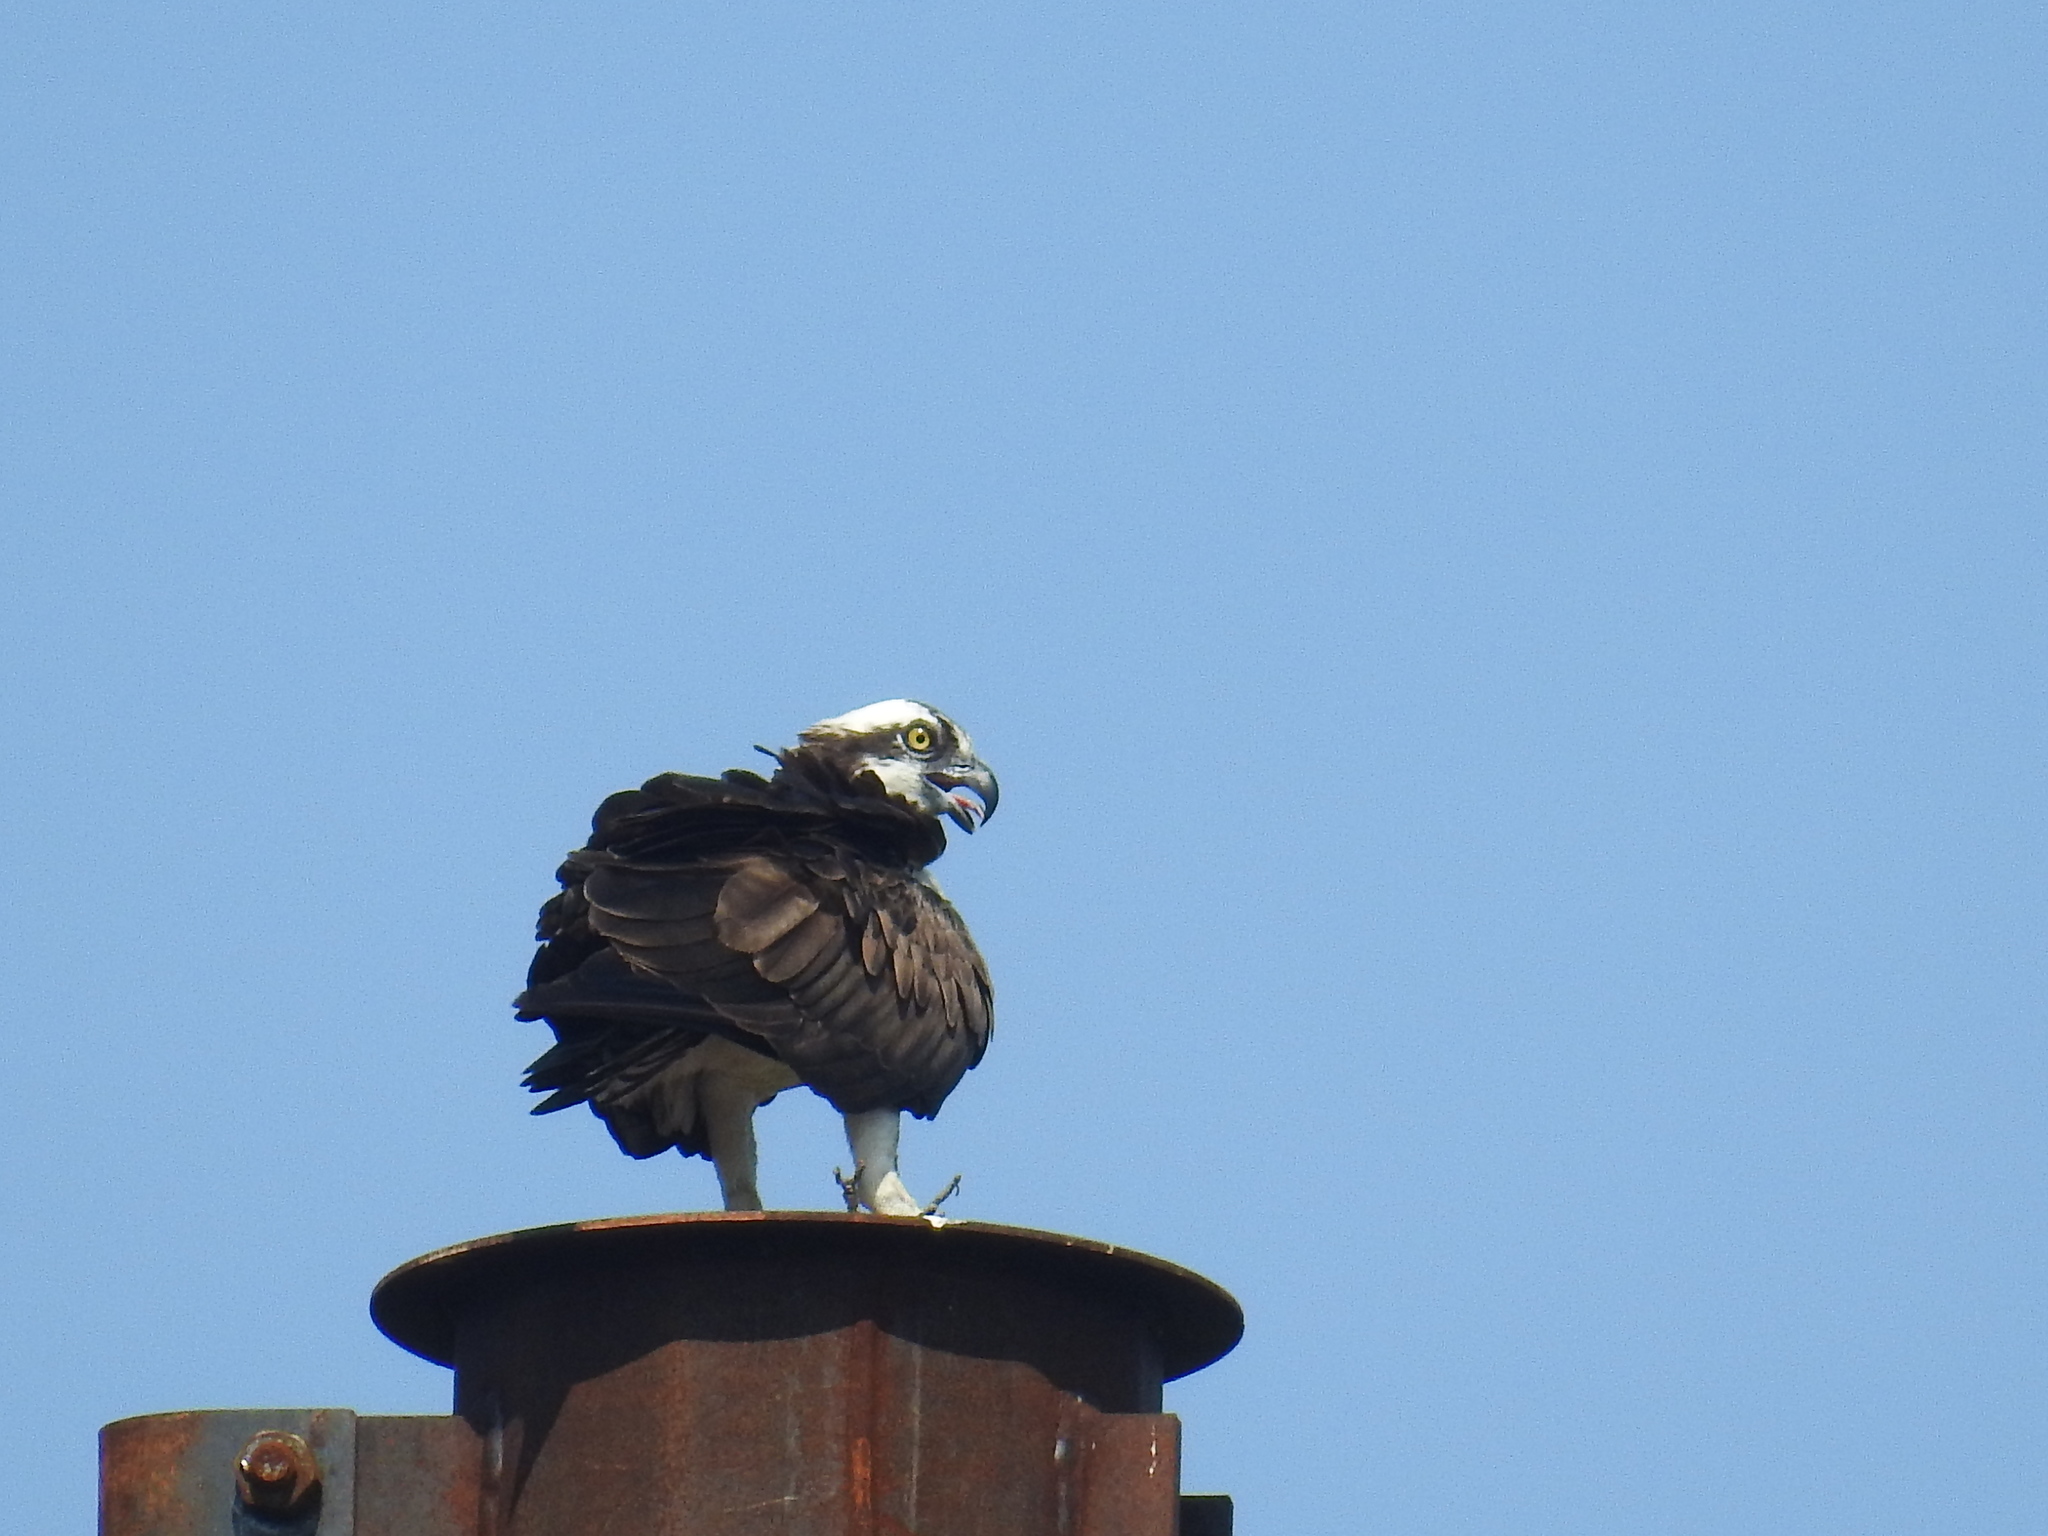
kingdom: Animalia
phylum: Chordata
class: Aves
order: Accipitriformes
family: Pandionidae
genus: Pandion
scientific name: Pandion haliaetus
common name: Osprey
